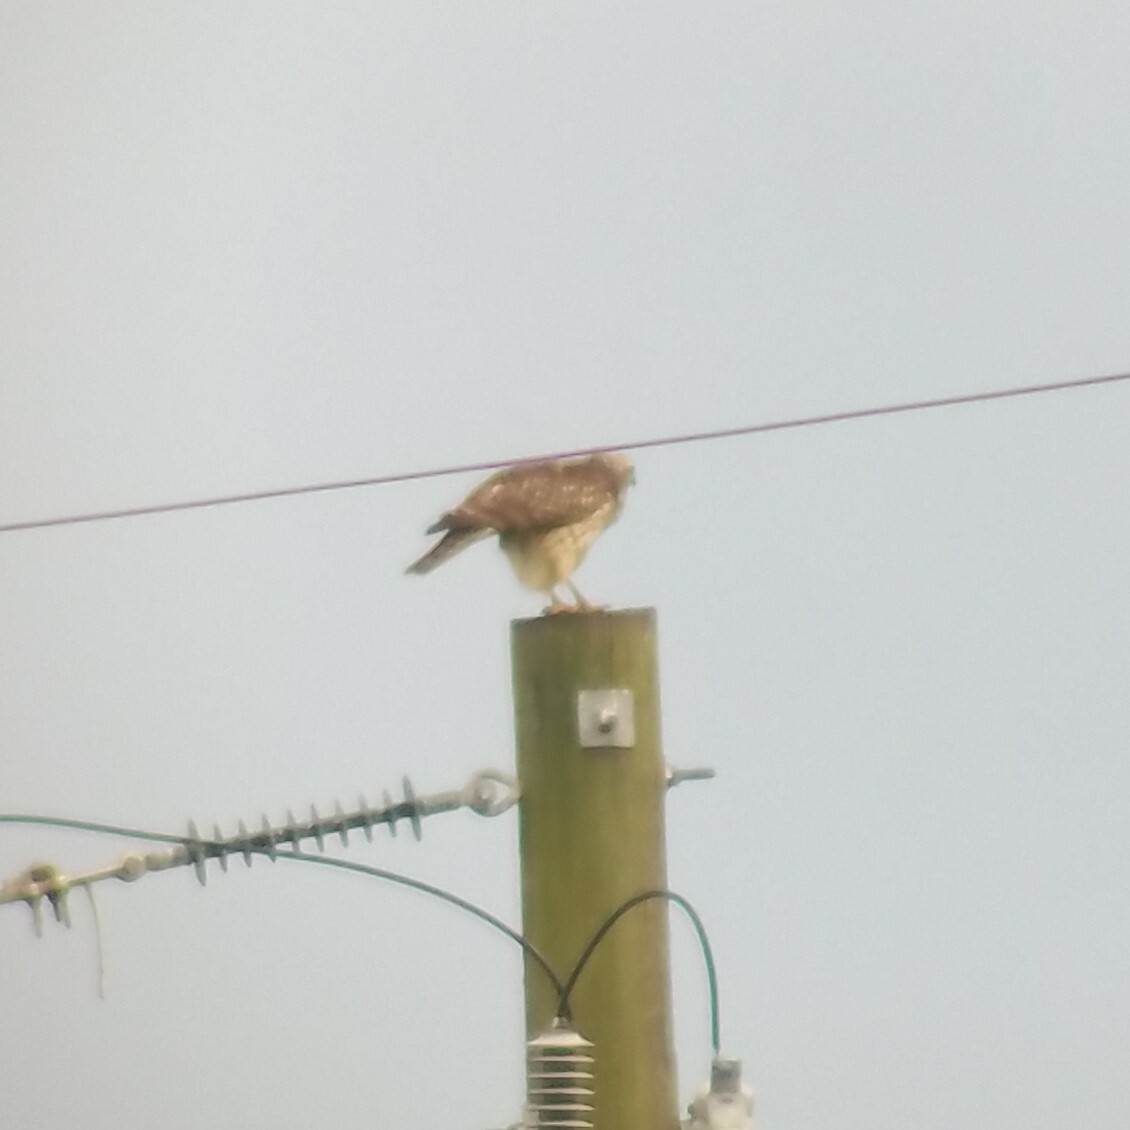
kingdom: Animalia
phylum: Chordata
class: Aves
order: Accipitriformes
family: Accipitridae
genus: Buteo
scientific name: Buteo lineatus
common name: Red-shouldered hawk
